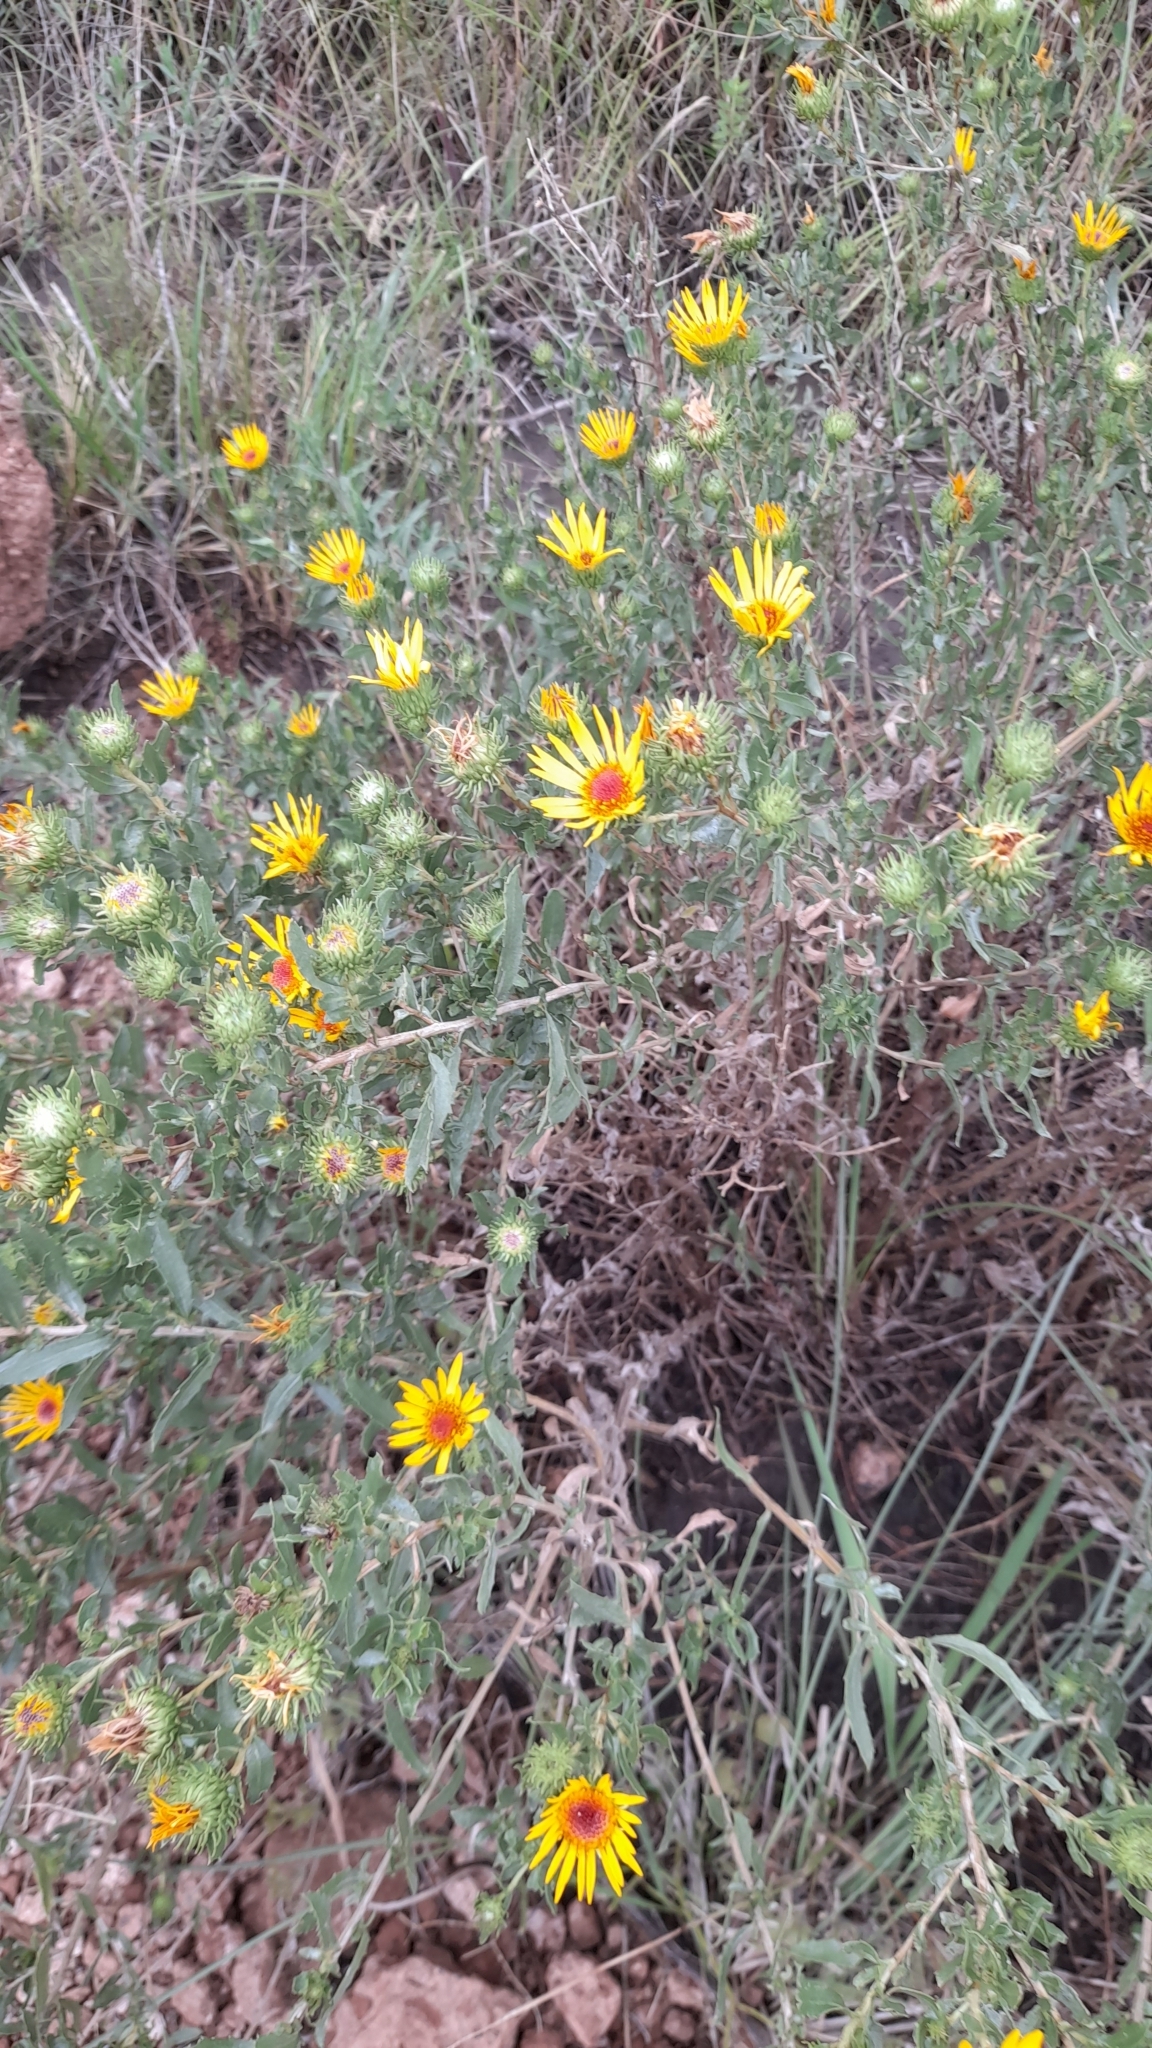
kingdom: Plantae
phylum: Tracheophyta
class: Magnoliopsida
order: Asterales
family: Asteraceae
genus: Grindelia
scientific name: Grindelia pulchella
